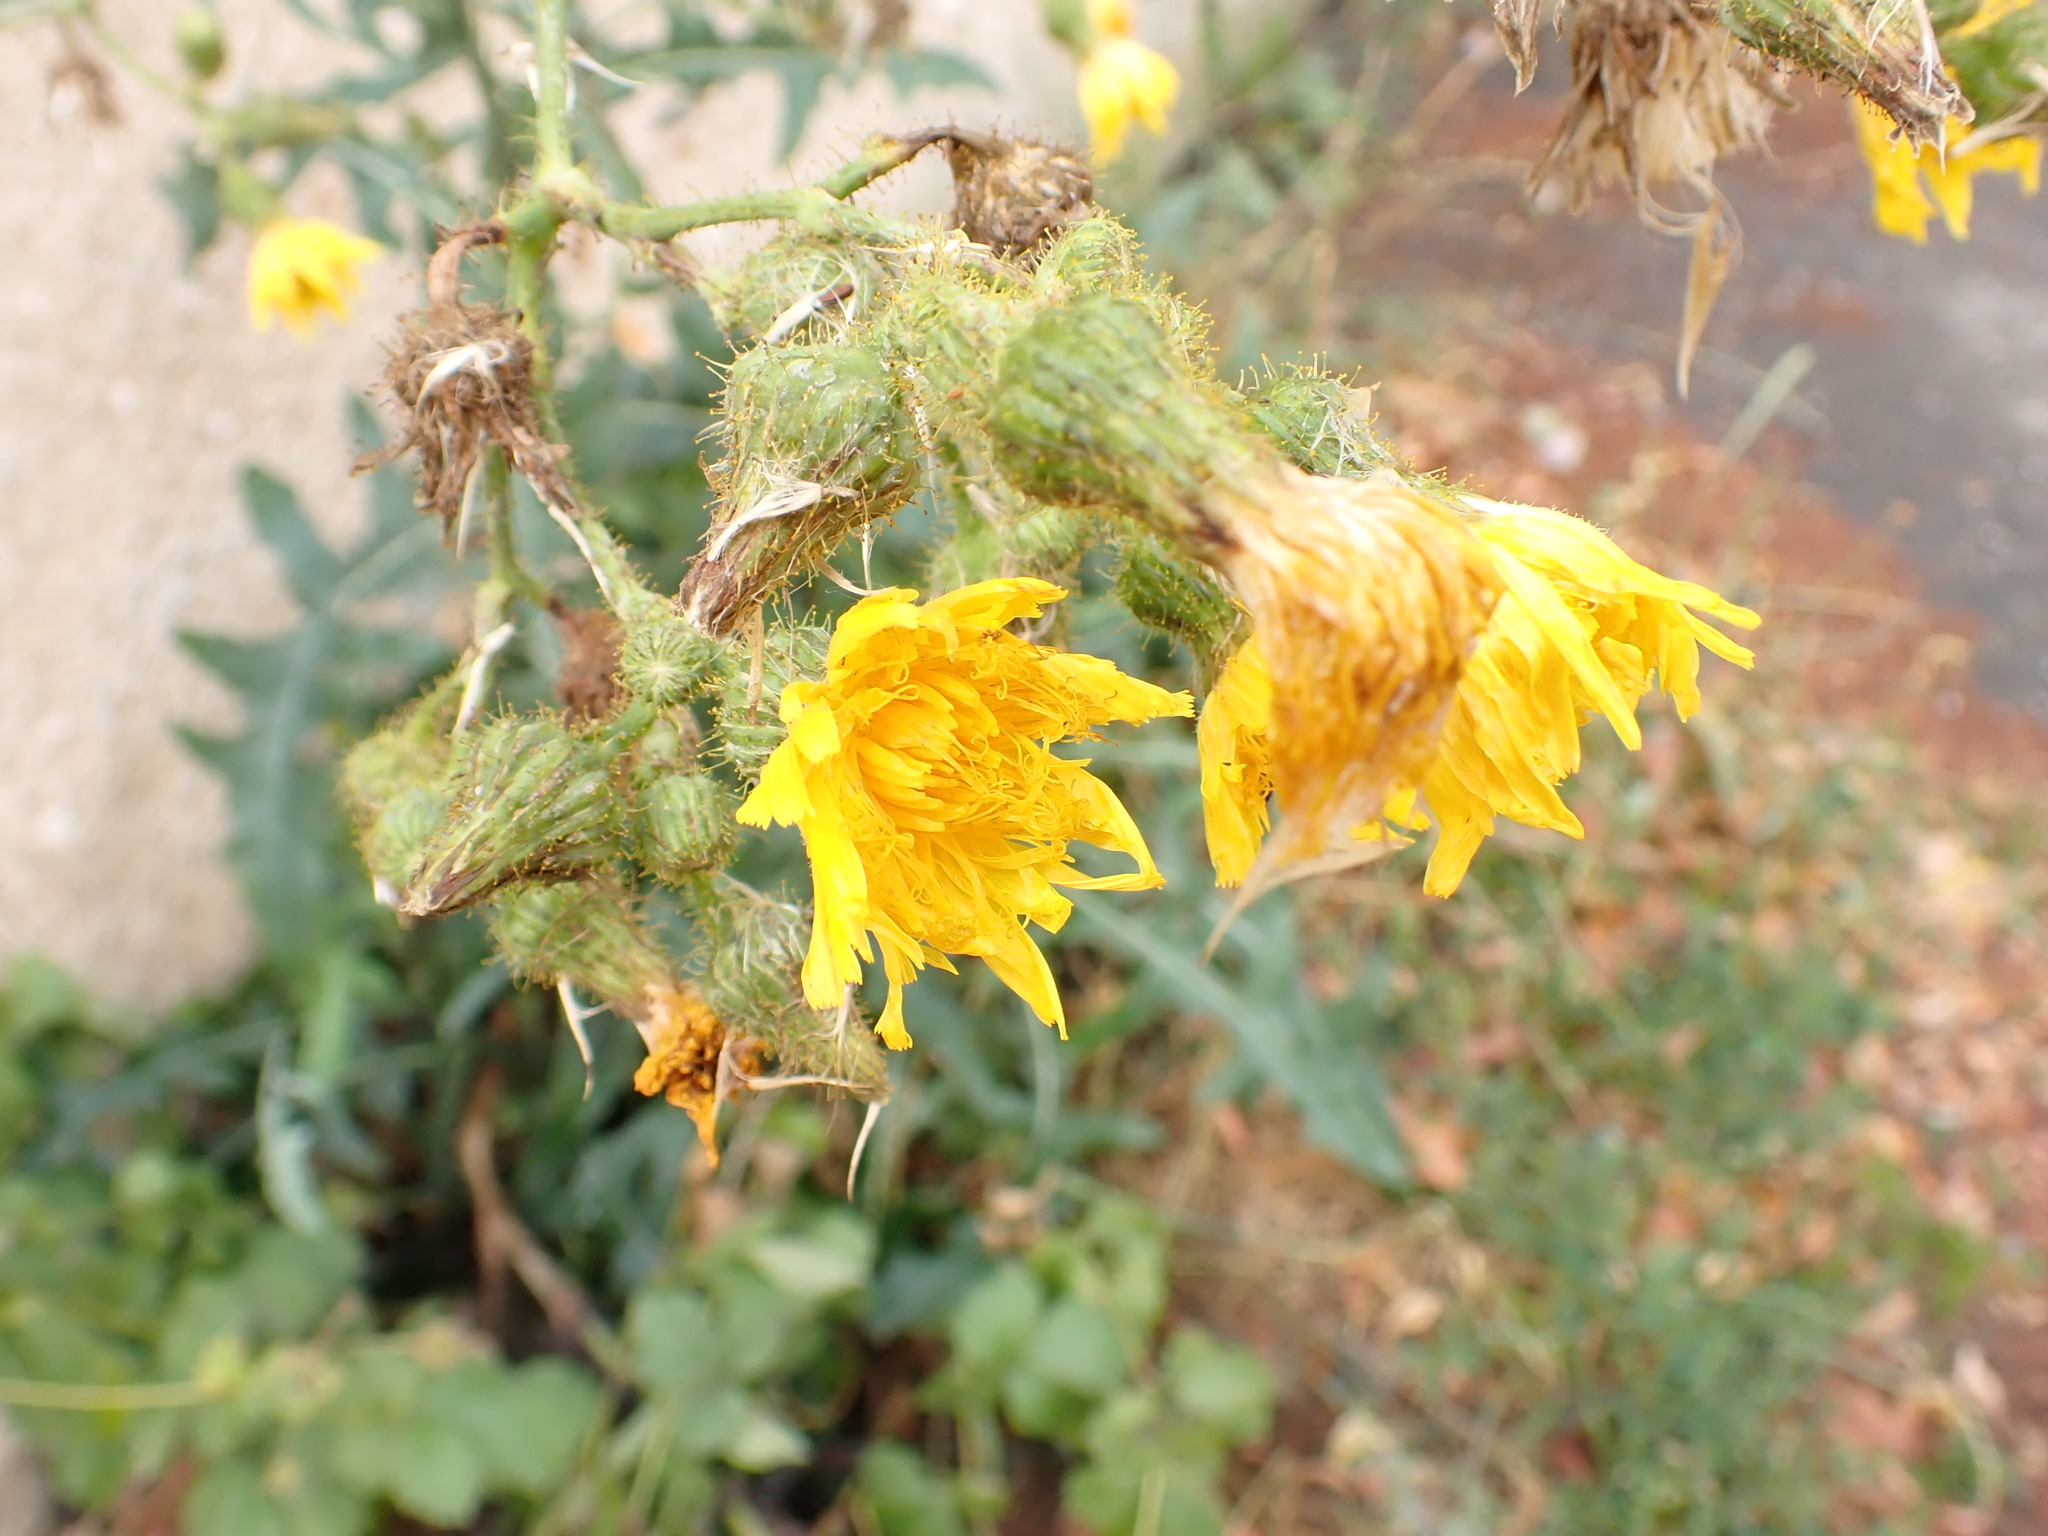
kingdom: Plantae
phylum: Tracheophyta
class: Magnoliopsida
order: Asterales
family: Asteraceae
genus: Sonchus
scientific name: Sonchus arvensis
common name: Perennial sow-thistle
